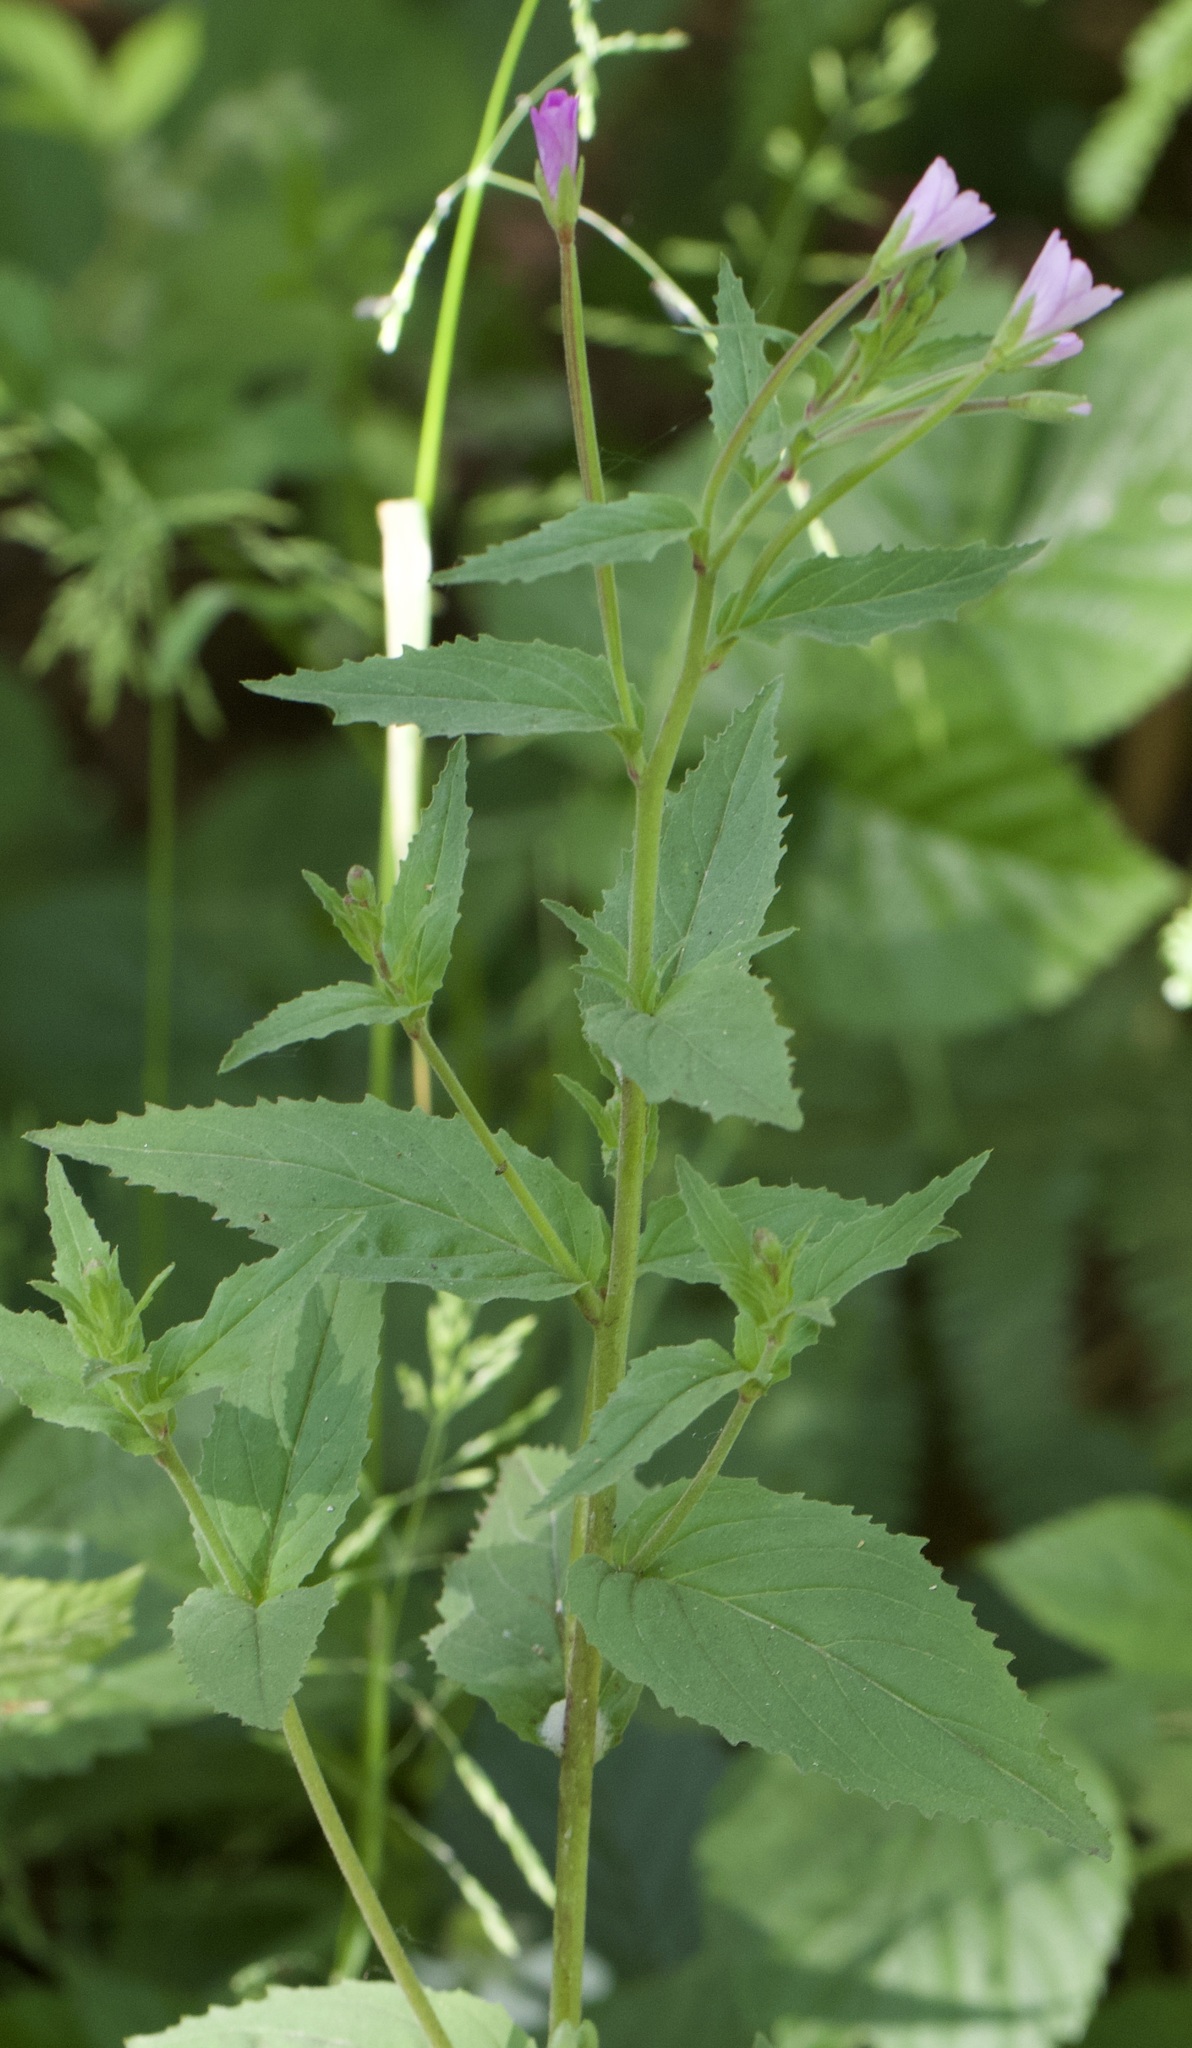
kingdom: Plantae
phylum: Tracheophyta
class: Magnoliopsida
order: Myrtales
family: Onagraceae
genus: Epilobium
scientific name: Epilobium montanum
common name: Broad-leaved willowherb
